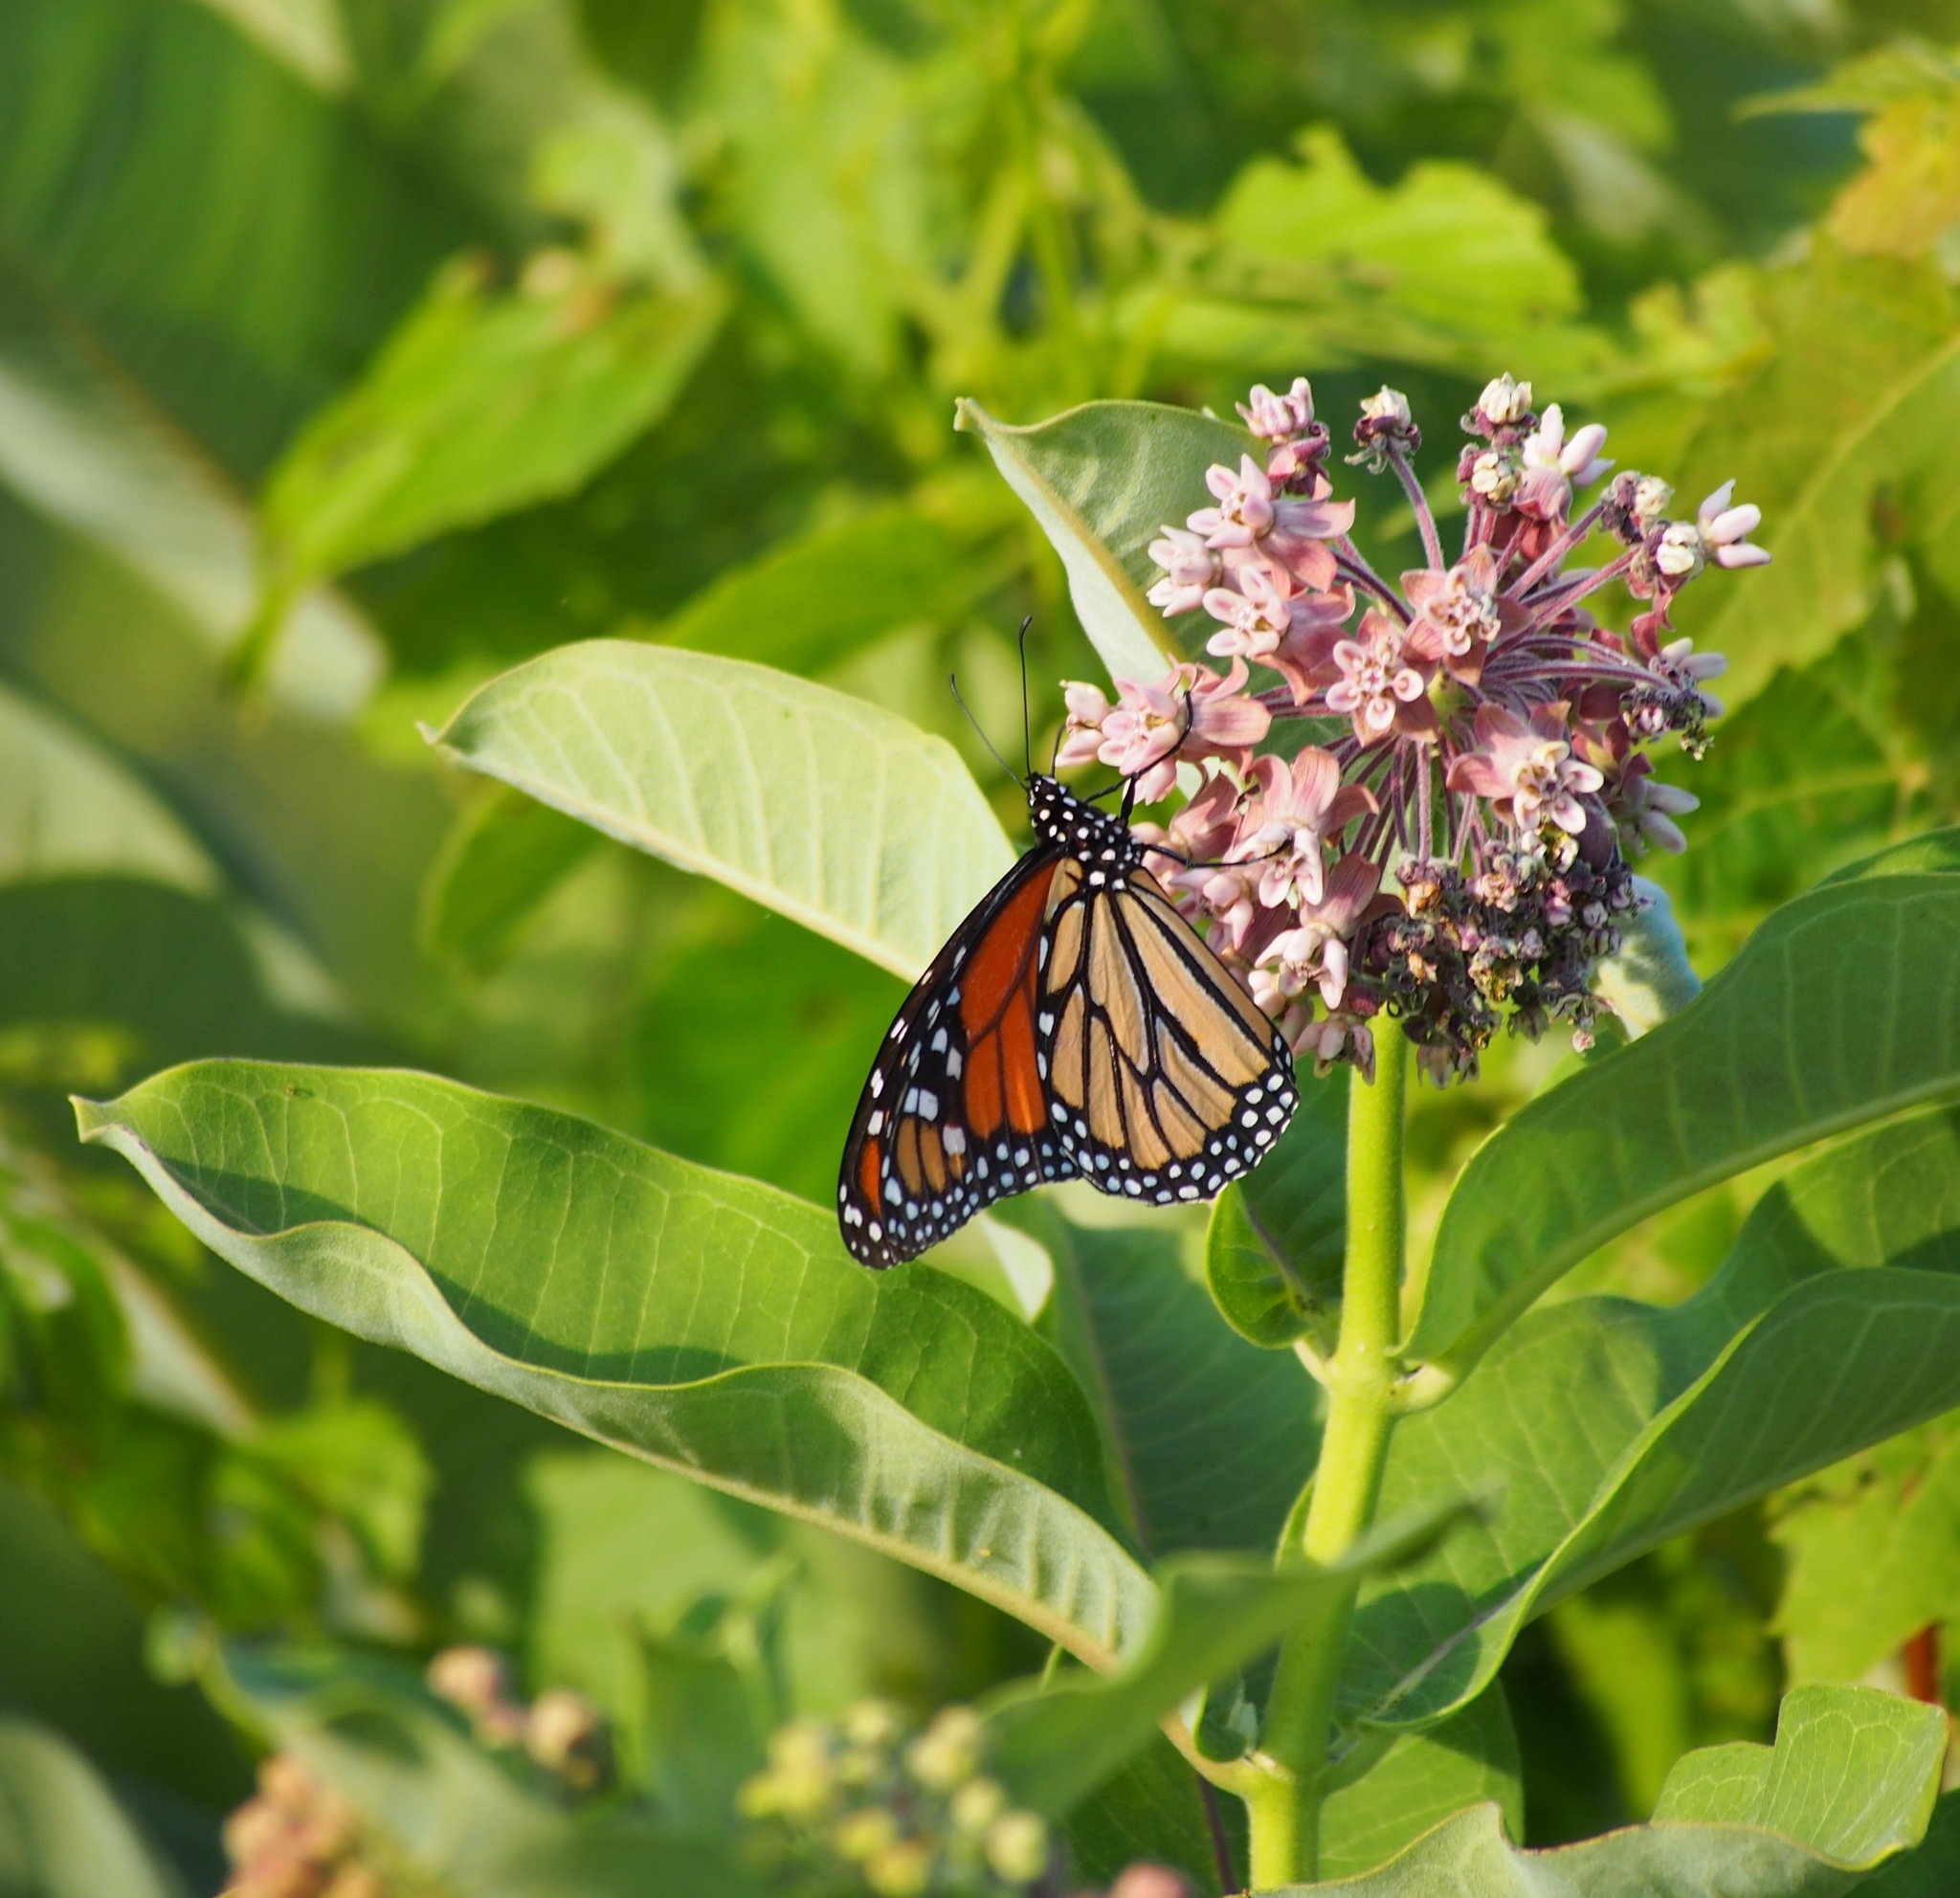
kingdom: Animalia
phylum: Arthropoda
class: Insecta
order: Lepidoptera
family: Nymphalidae
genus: Danaus
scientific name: Danaus plexippus
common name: Monarch
